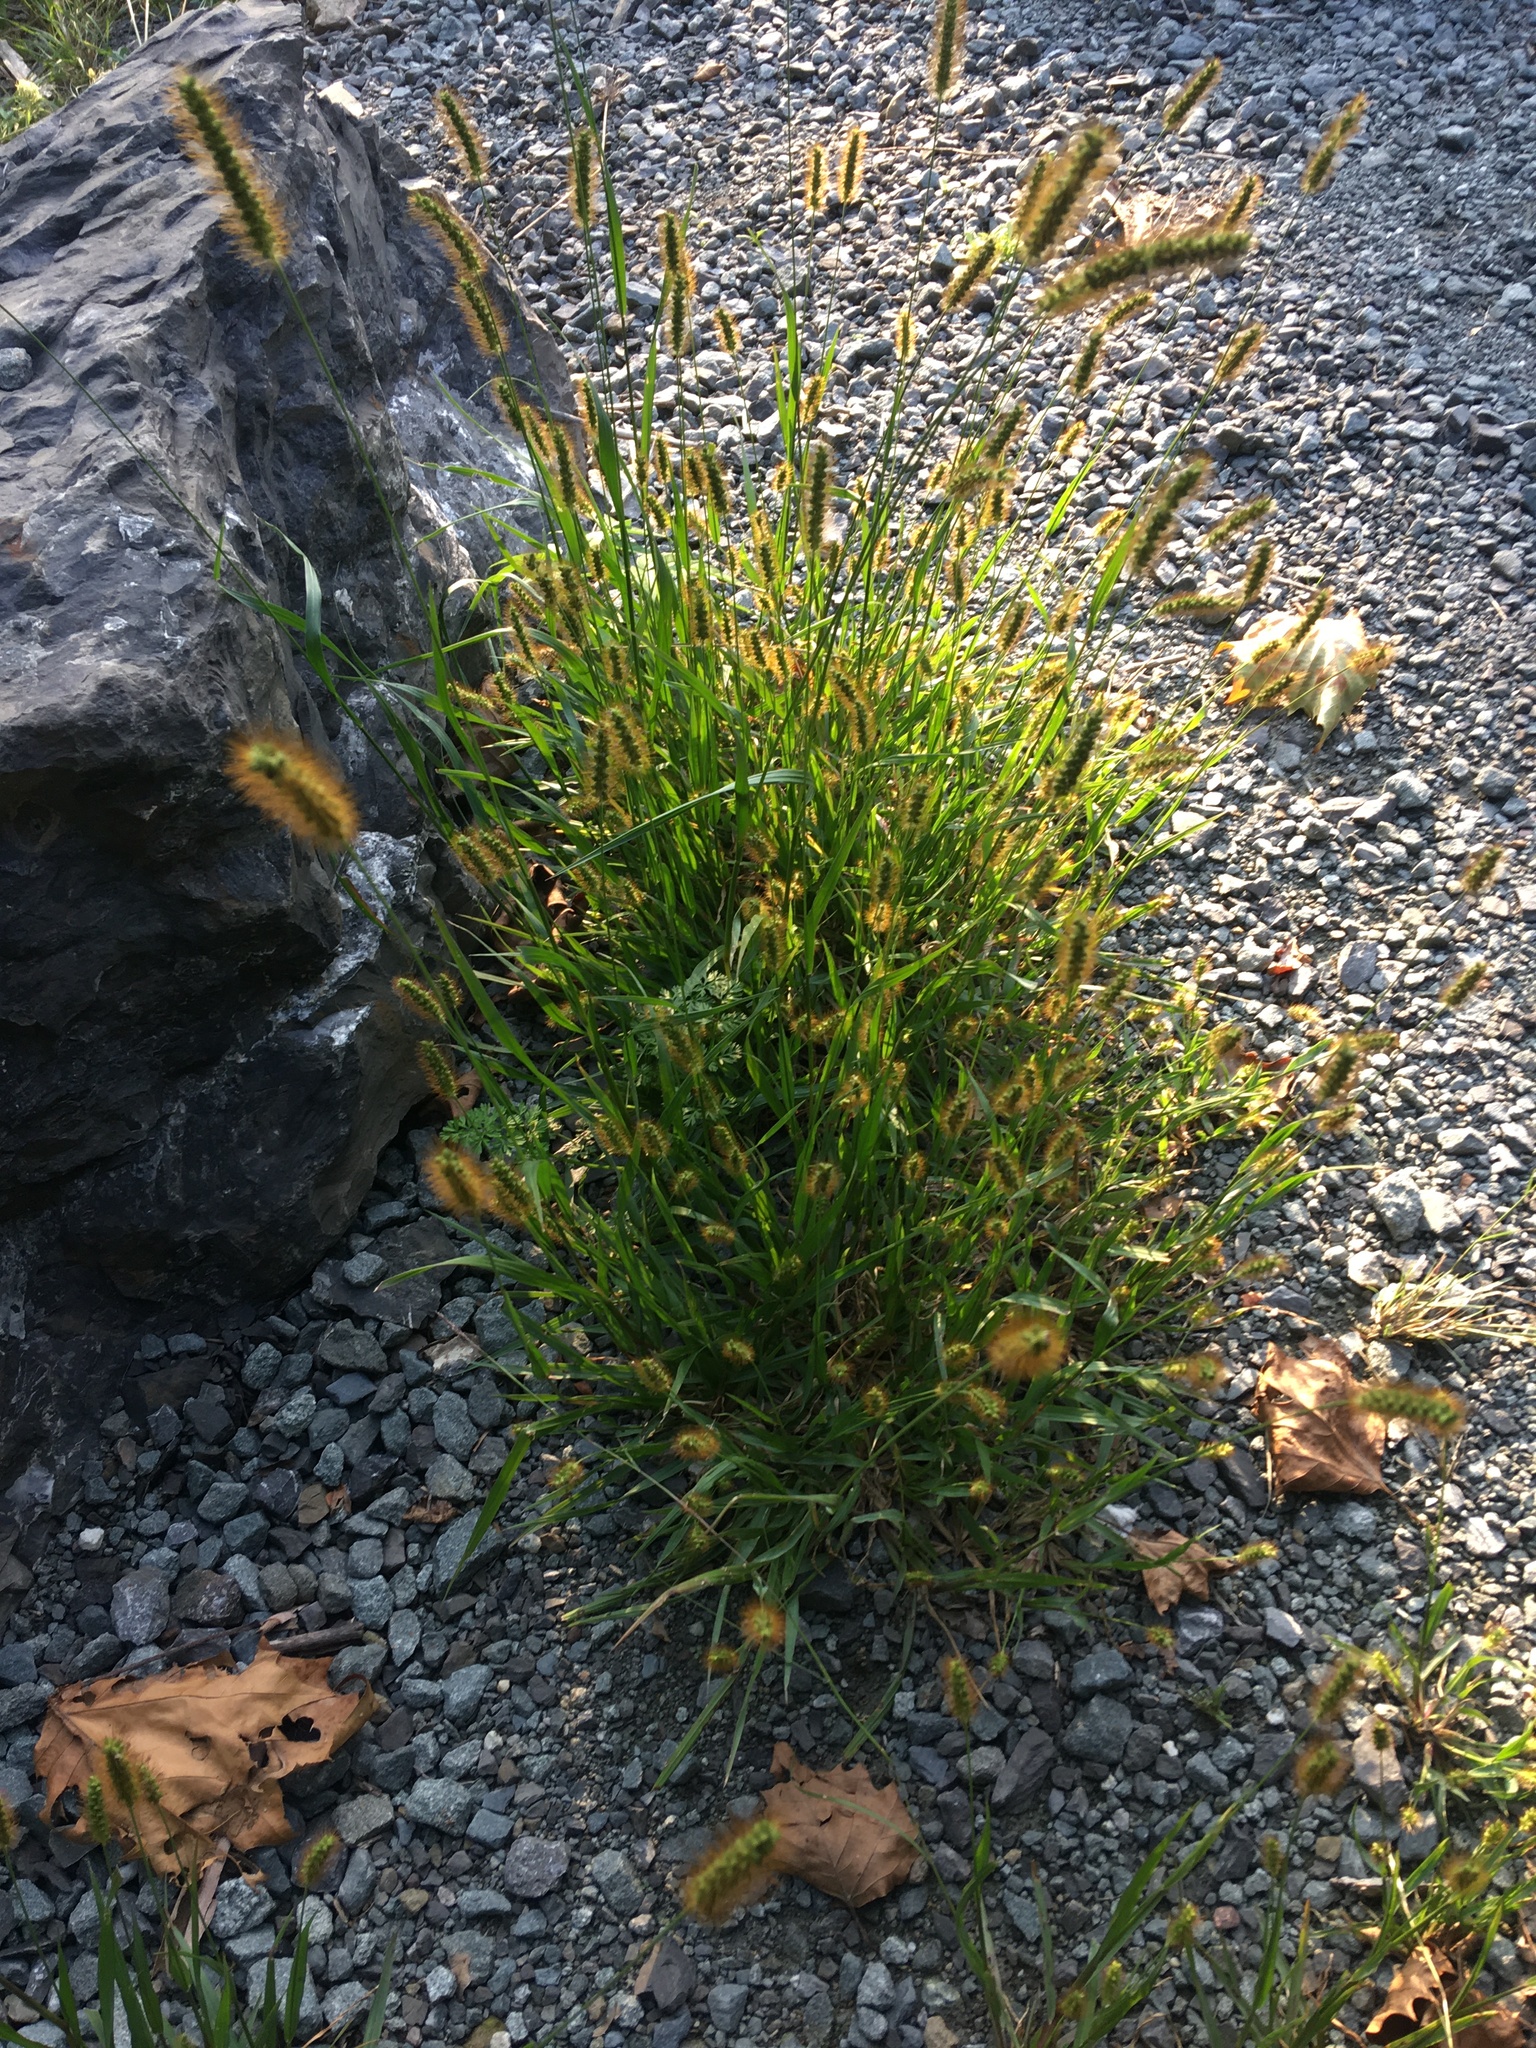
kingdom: Plantae
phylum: Tracheophyta
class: Liliopsida
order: Poales
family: Poaceae
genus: Setaria
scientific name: Setaria pumila
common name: Yellow bristle-grass
